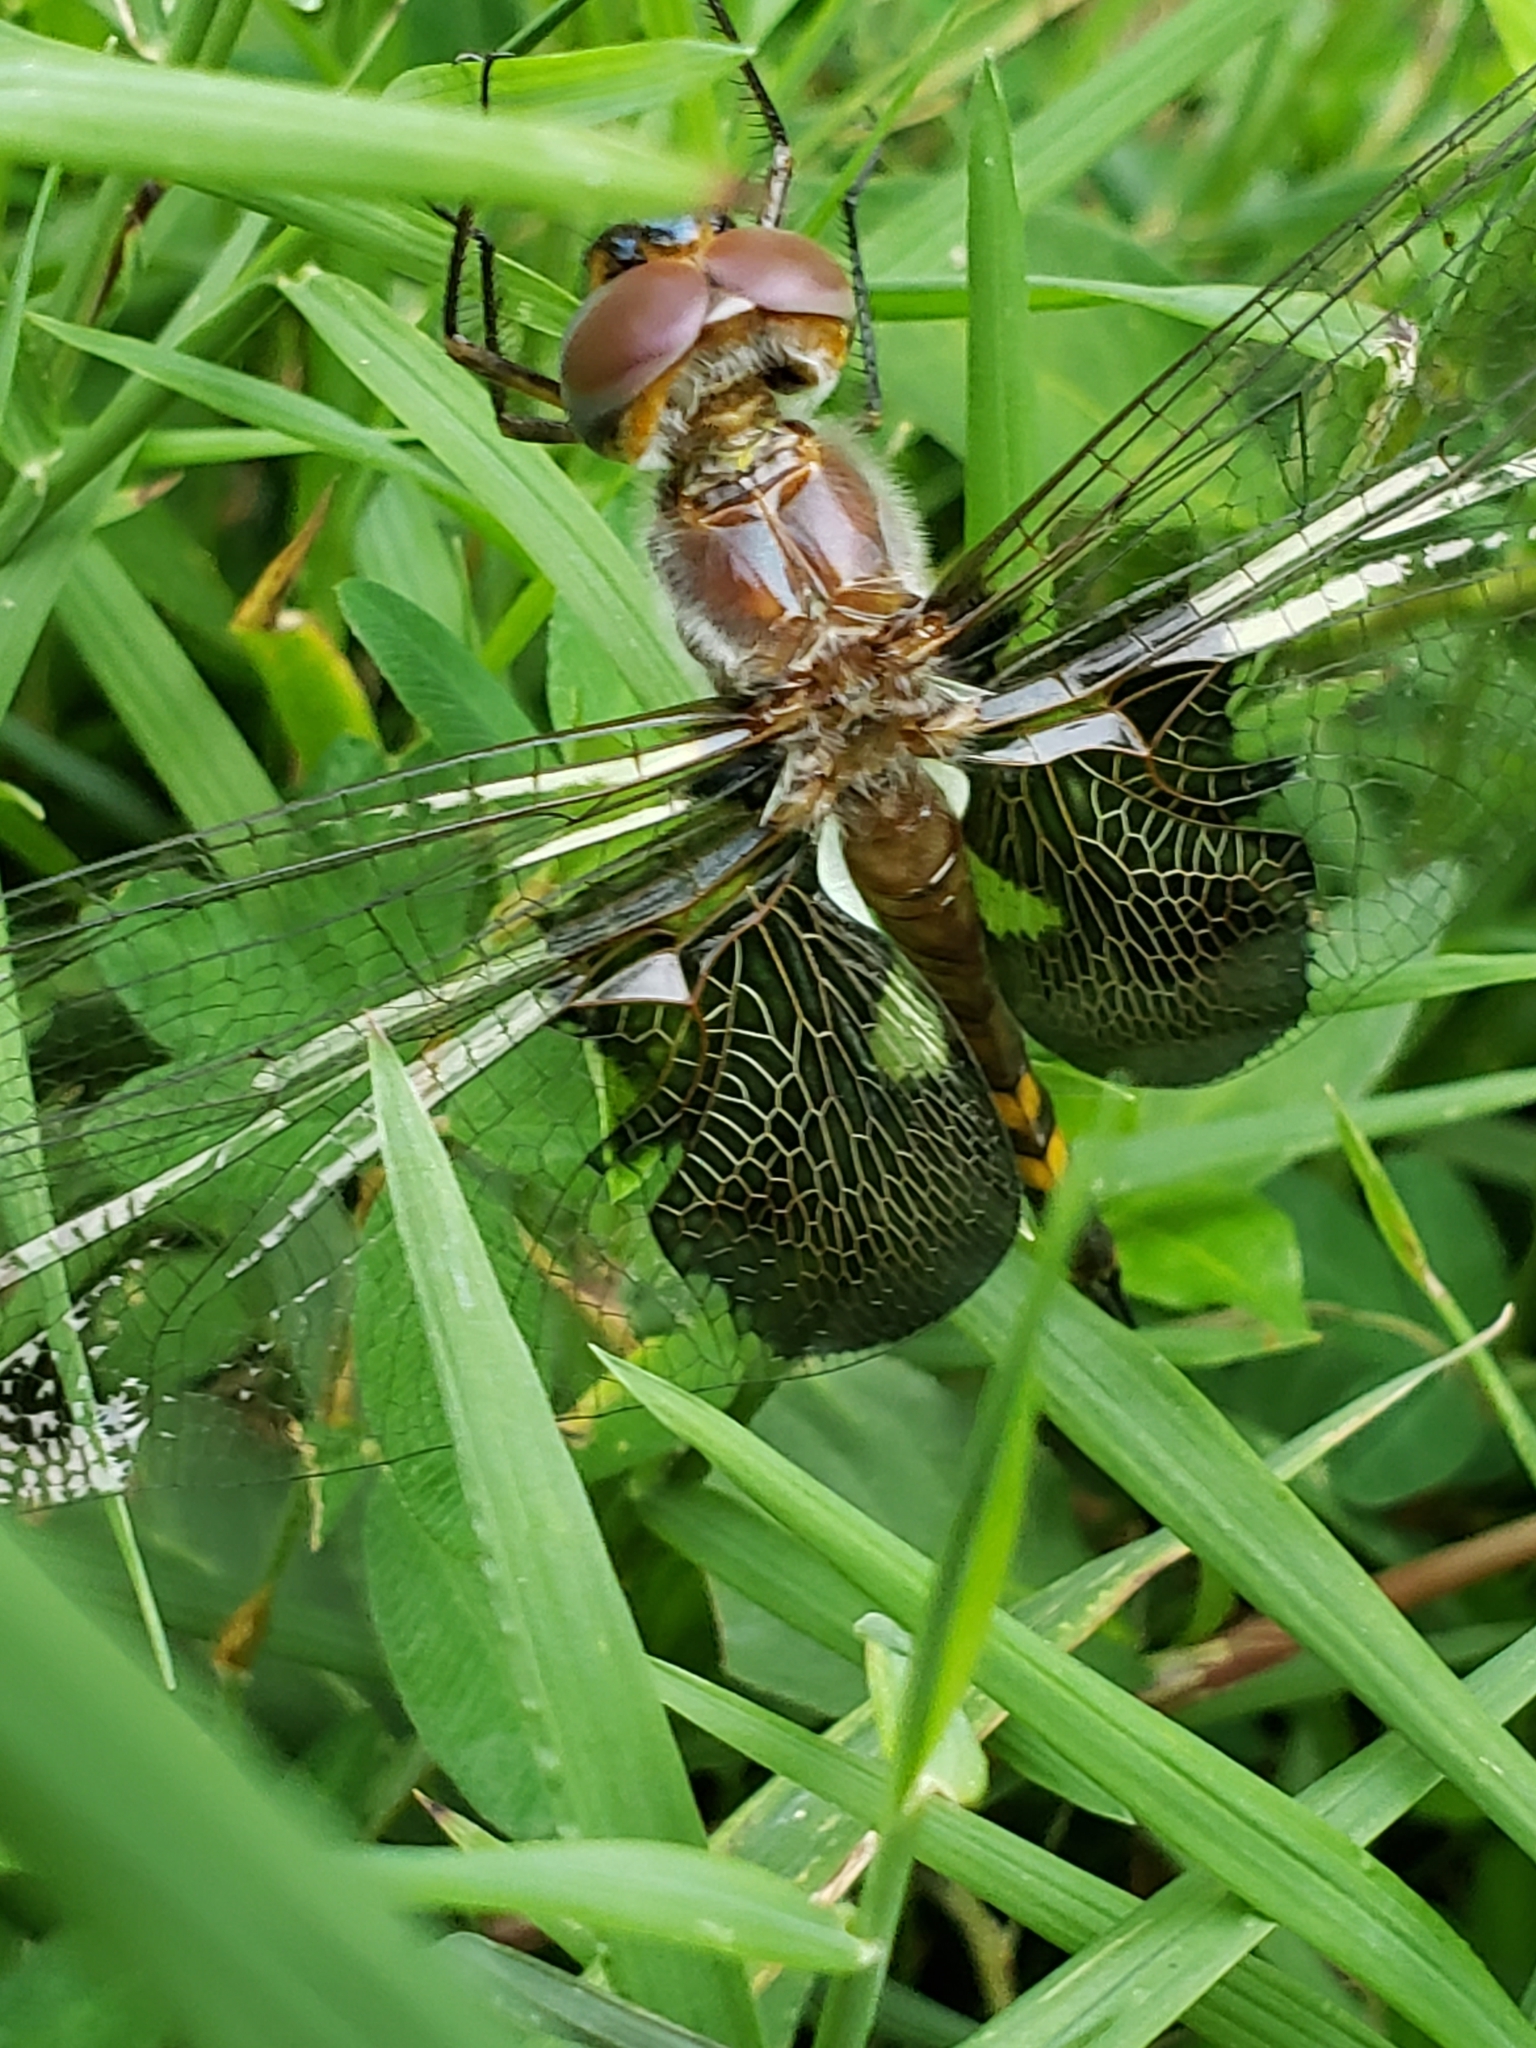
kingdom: Animalia
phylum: Arthropoda
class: Insecta
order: Odonata
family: Libellulidae
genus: Tramea
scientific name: Tramea lacerata
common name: Black saddlebags
